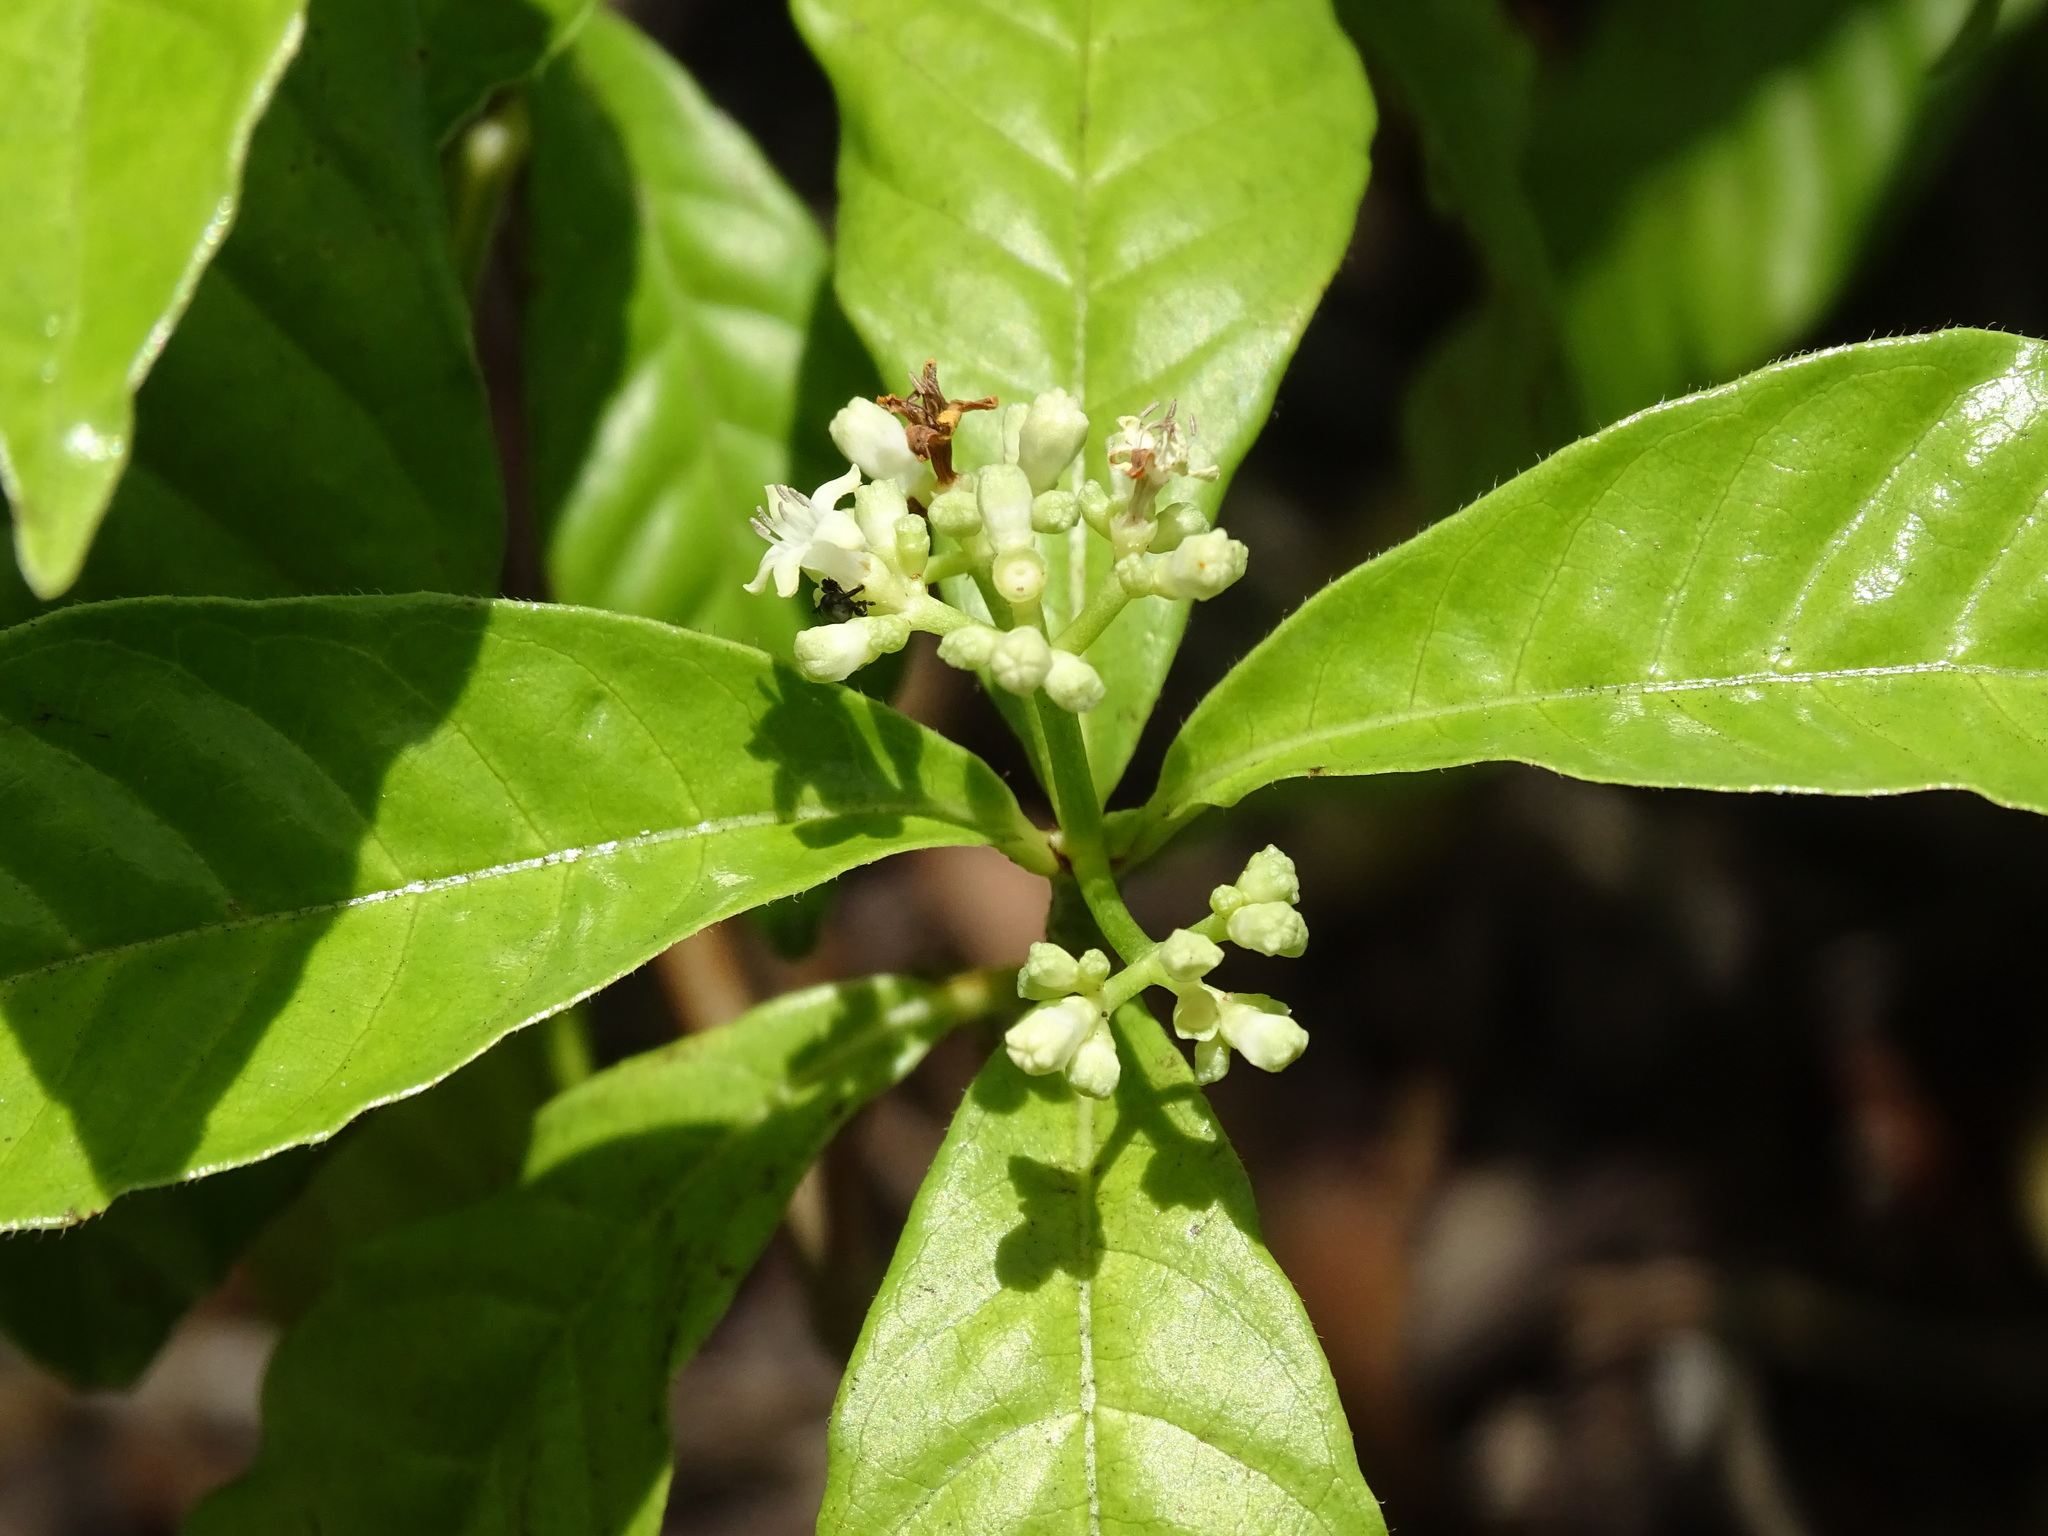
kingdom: Plantae
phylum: Tracheophyta
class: Magnoliopsida
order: Gentianales
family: Rubiaceae
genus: Psychotria
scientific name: Psychotria nervosa
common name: Bastard cankerberry
